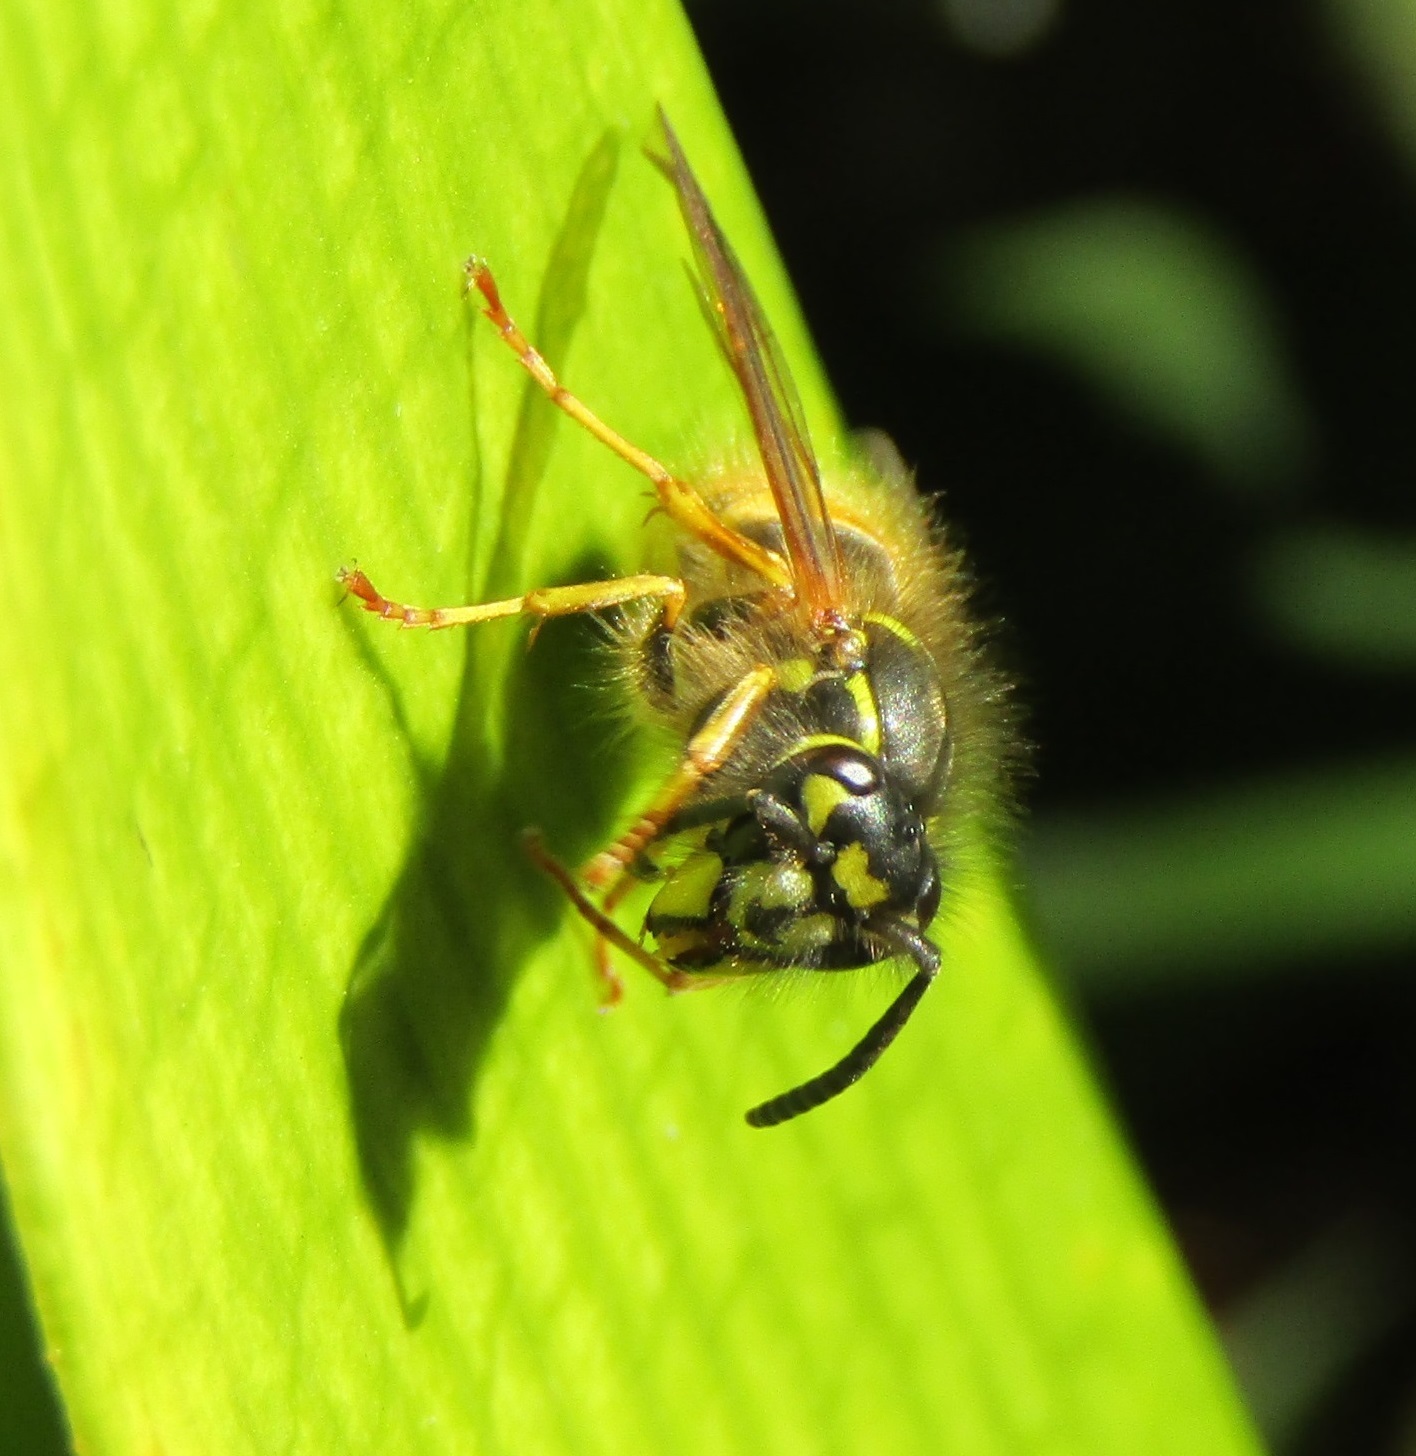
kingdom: Animalia
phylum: Arthropoda
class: Insecta
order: Hymenoptera
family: Vespidae
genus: Vespula
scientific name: Vespula vulgaris
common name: Common wasp
